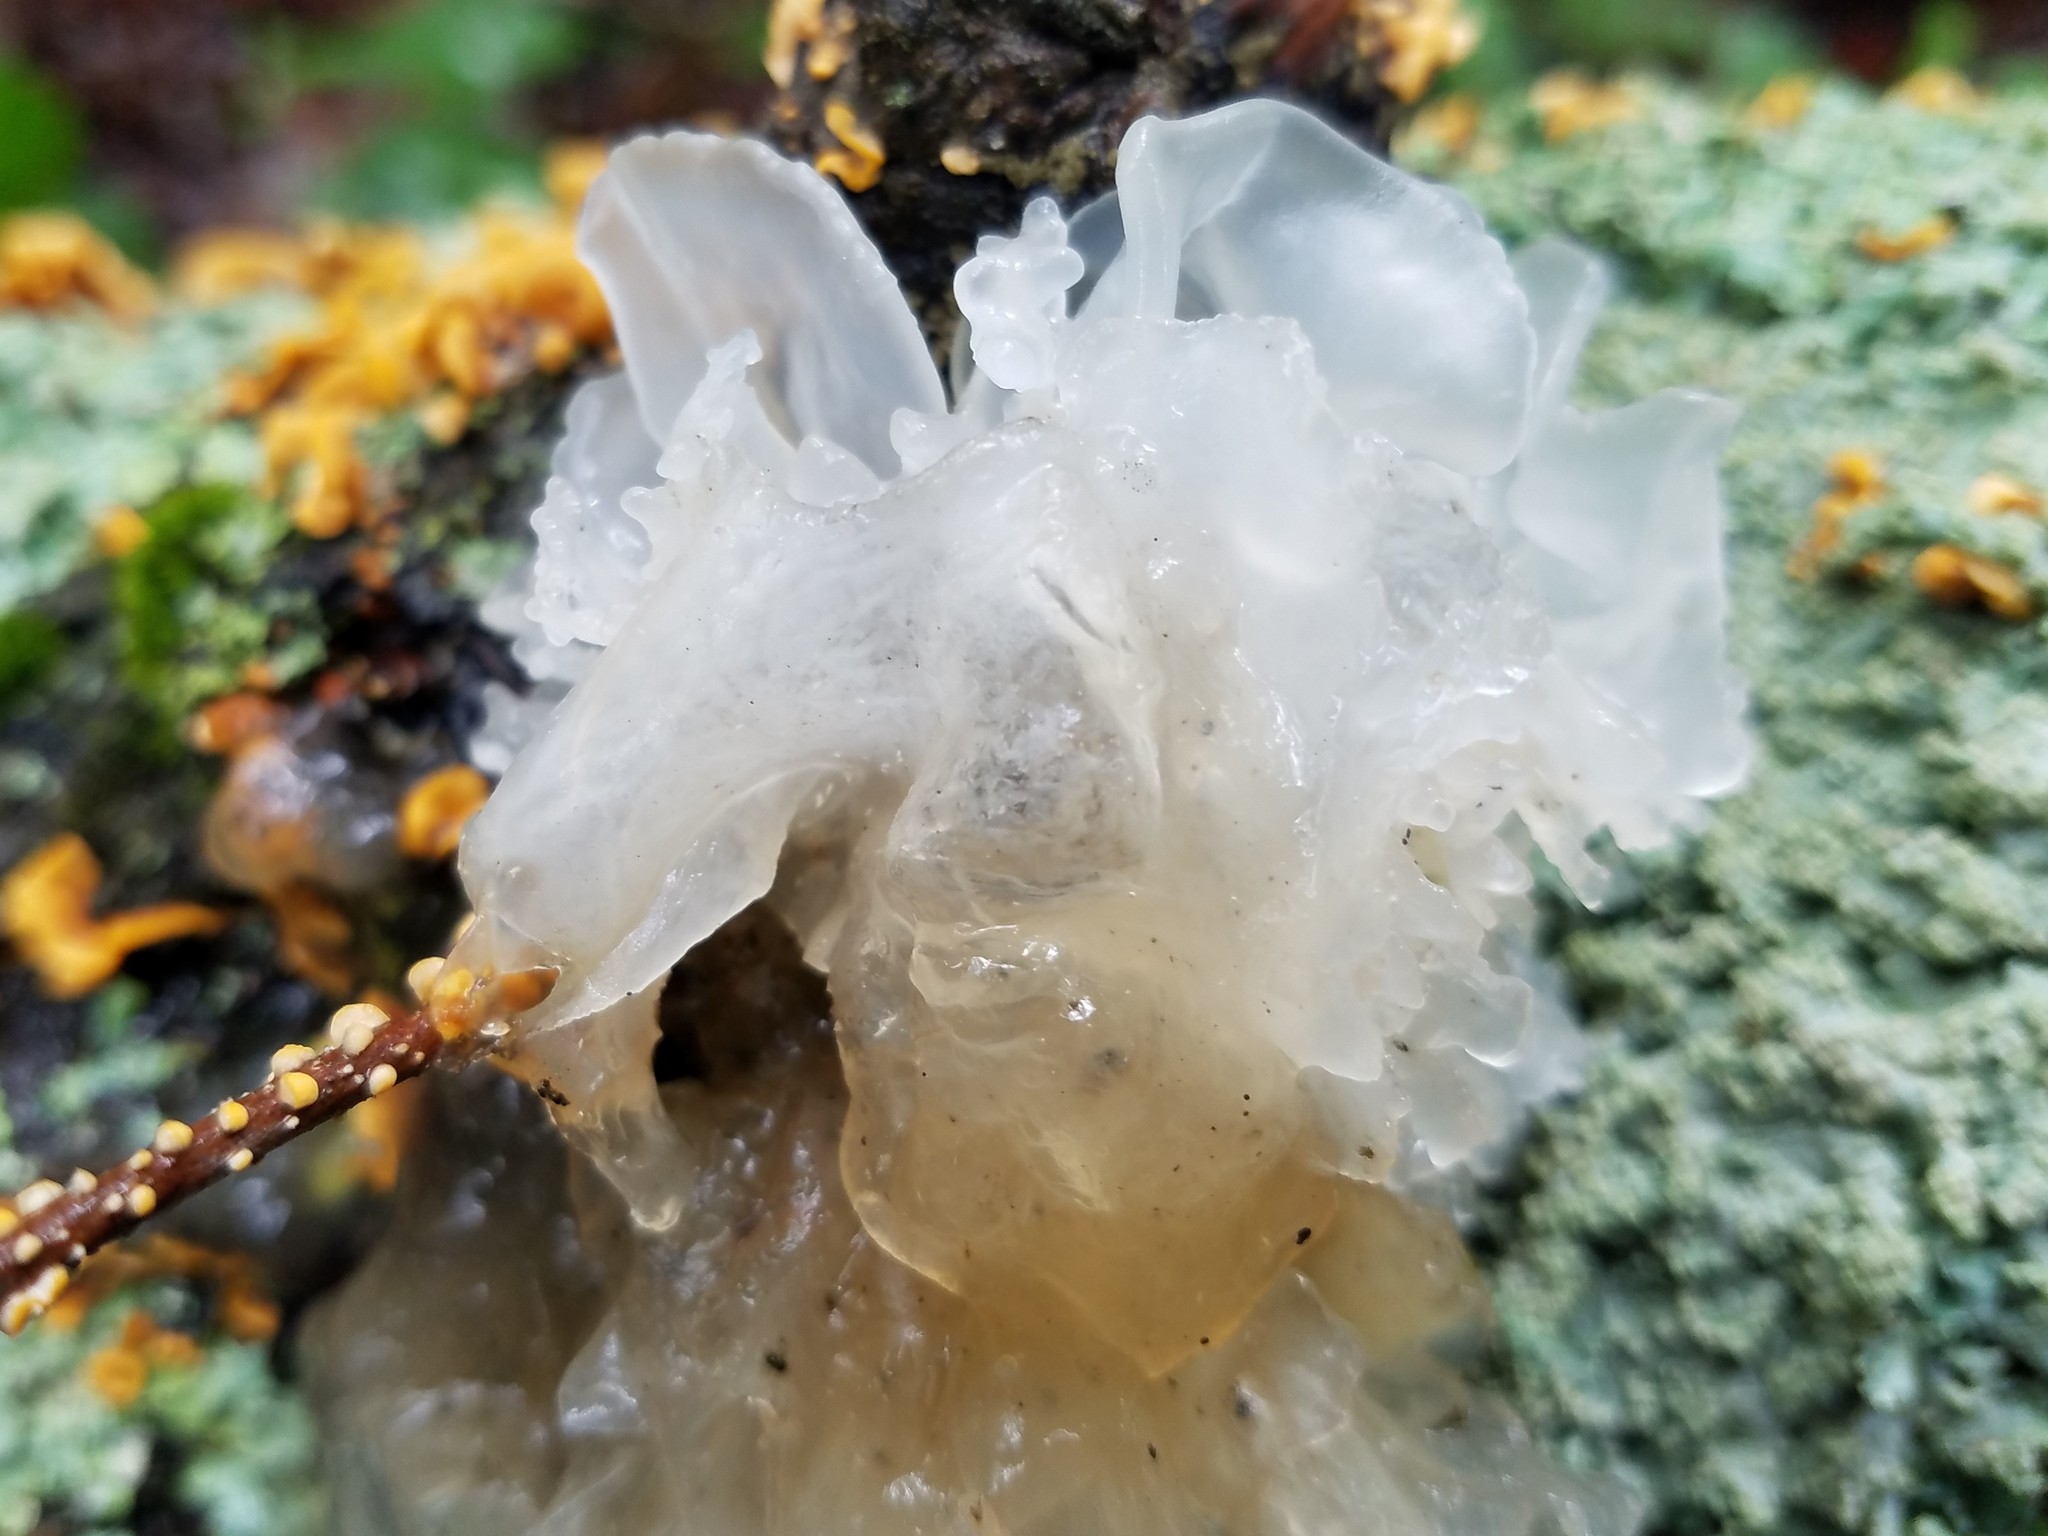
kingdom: Fungi
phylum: Basidiomycota
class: Tremellomycetes
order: Tremellales
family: Tremellaceae
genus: Tremella
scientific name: Tremella fuciformis
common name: Snow fungus
